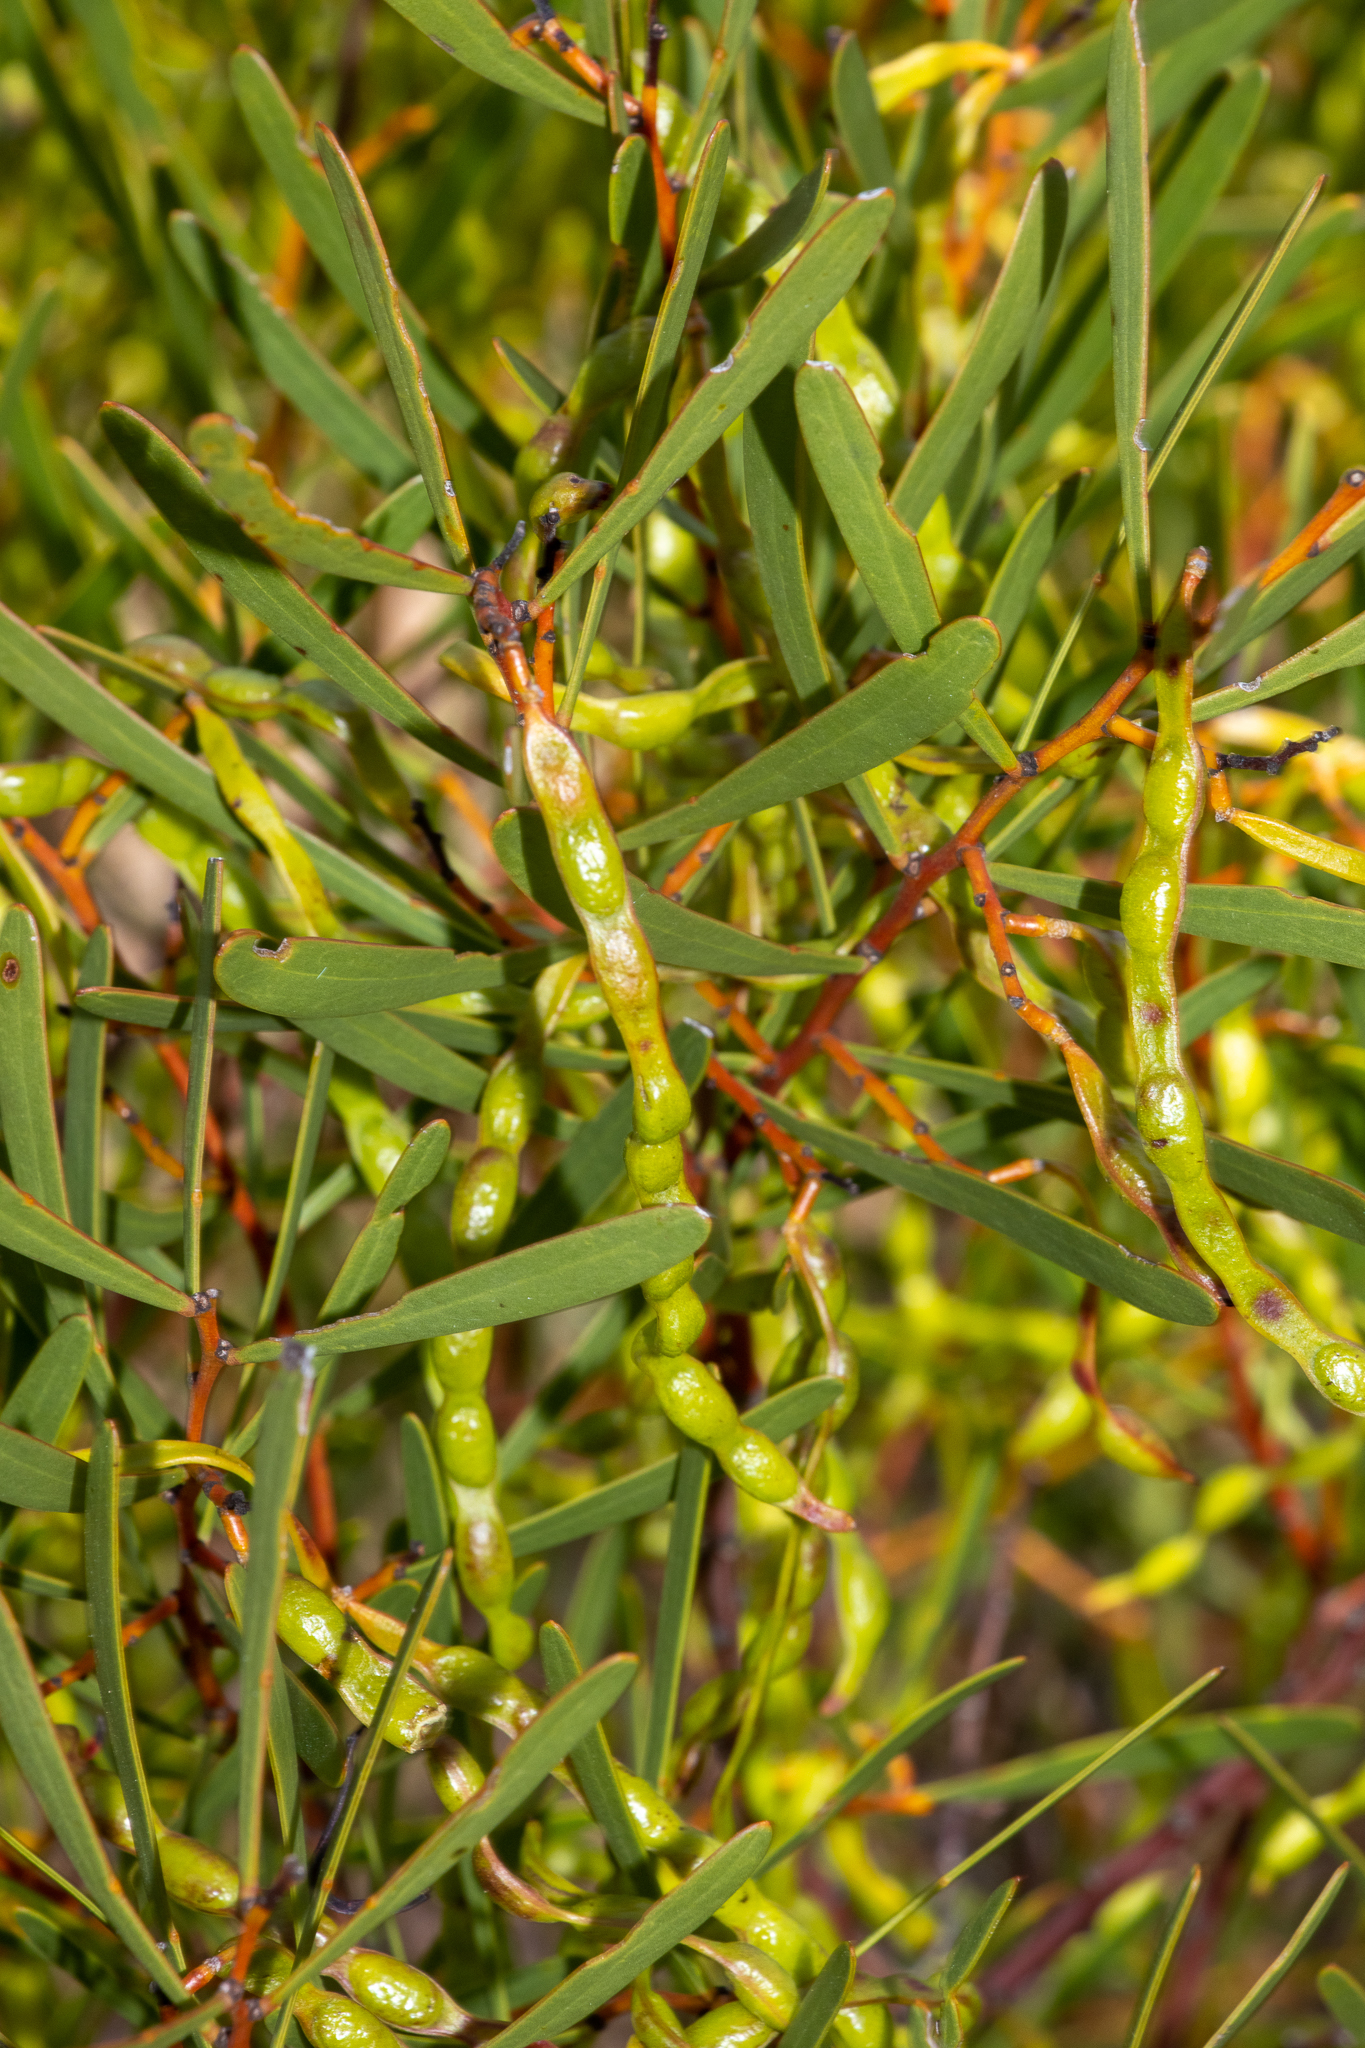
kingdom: Plantae
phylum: Tracheophyta
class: Magnoliopsida
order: Fabales
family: Fabaceae
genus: Acacia
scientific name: Acacia hakeoides
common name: Hakea wattle
